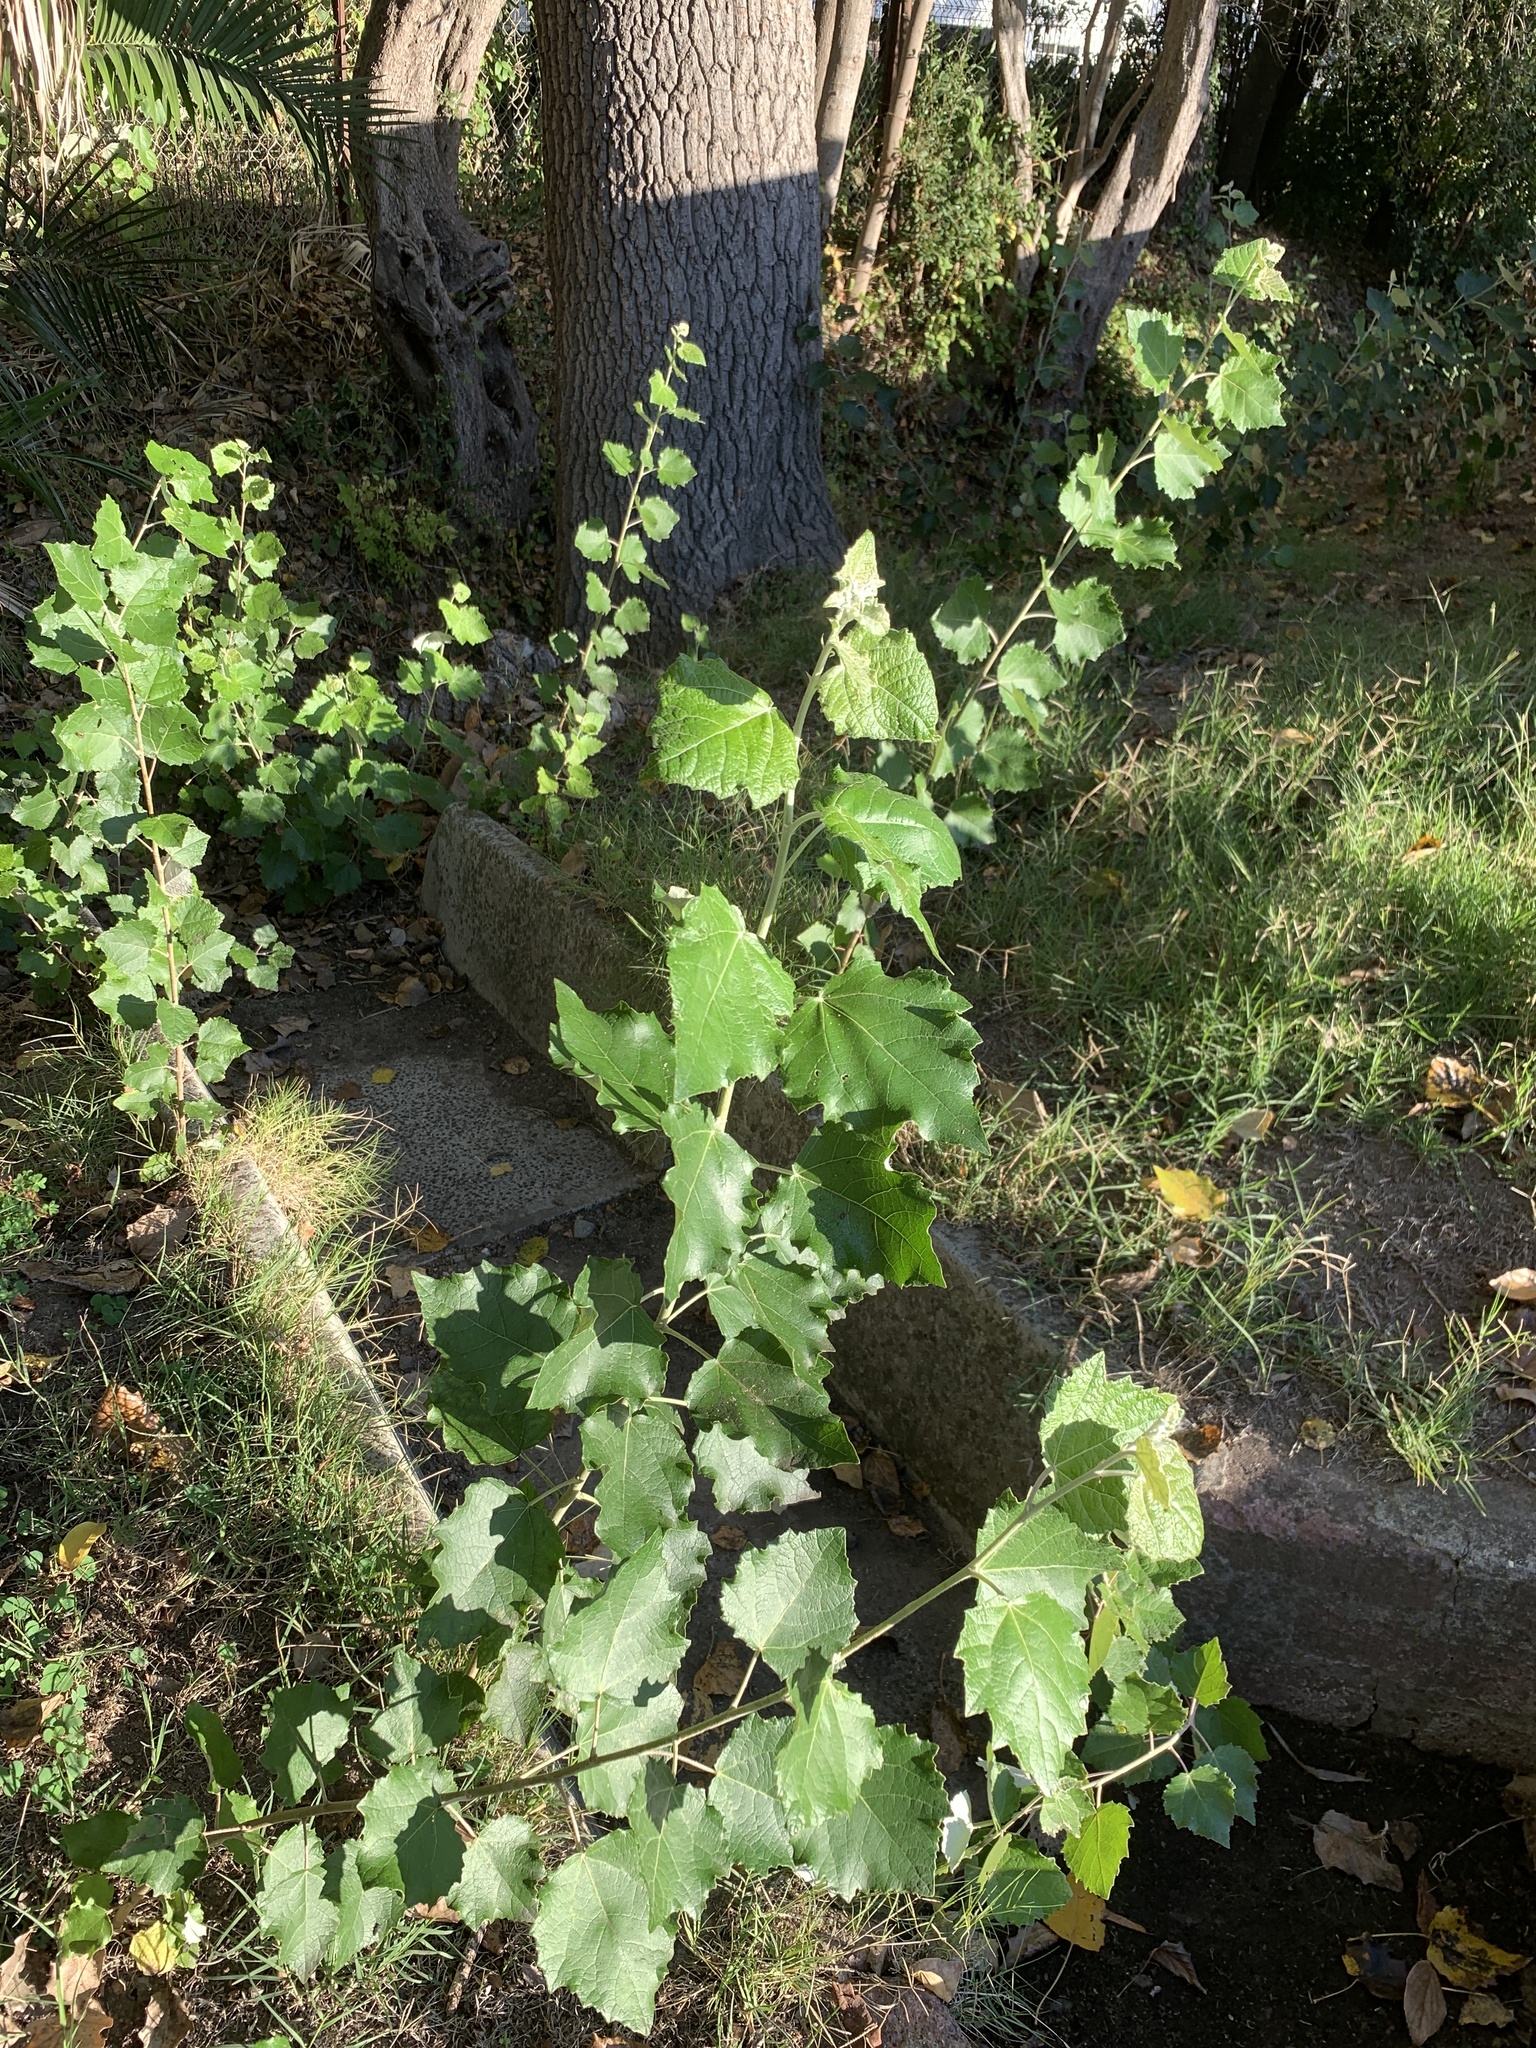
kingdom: Plantae
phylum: Tracheophyta
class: Magnoliopsida
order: Malpighiales
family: Salicaceae
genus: Populus
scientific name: Populus canescens
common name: Gray poplar
